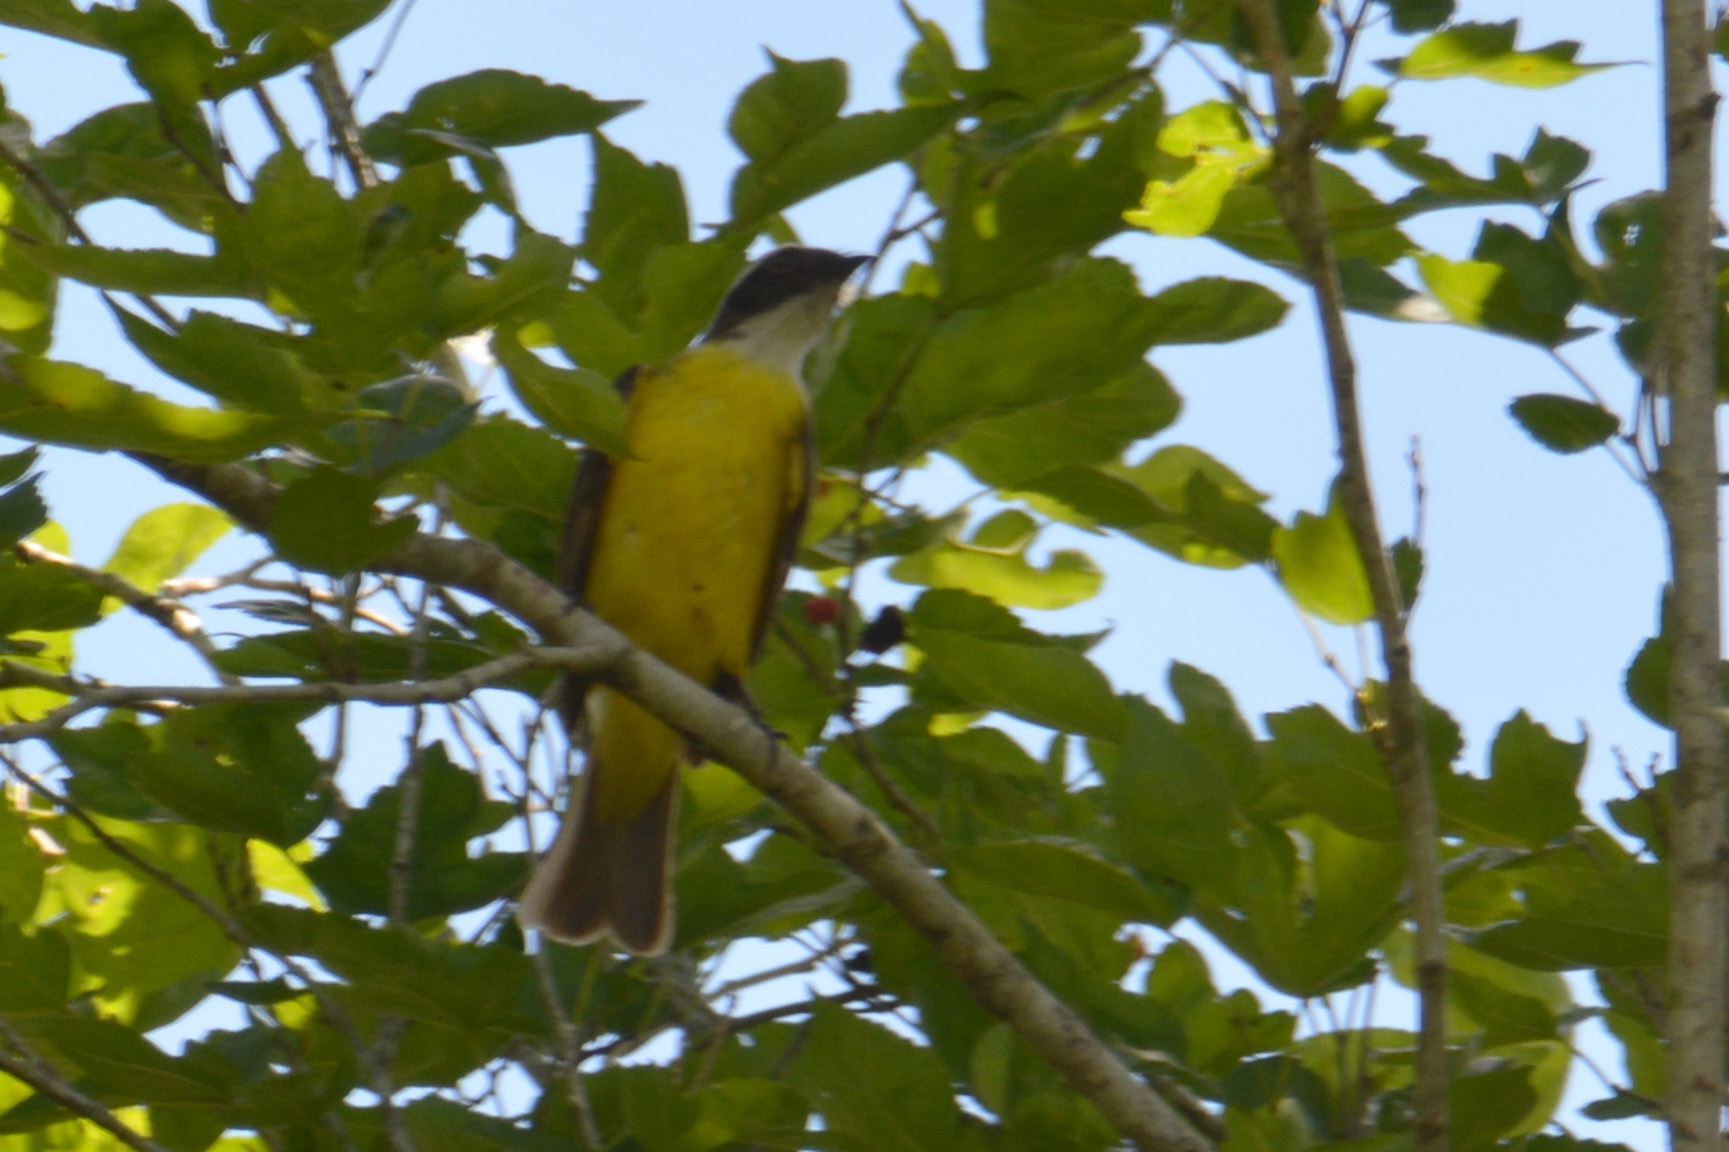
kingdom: Animalia
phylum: Chordata
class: Aves
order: Passeriformes
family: Tyrannidae
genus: Myiozetetes
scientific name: Myiozetetes similis
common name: Social flycatcher
